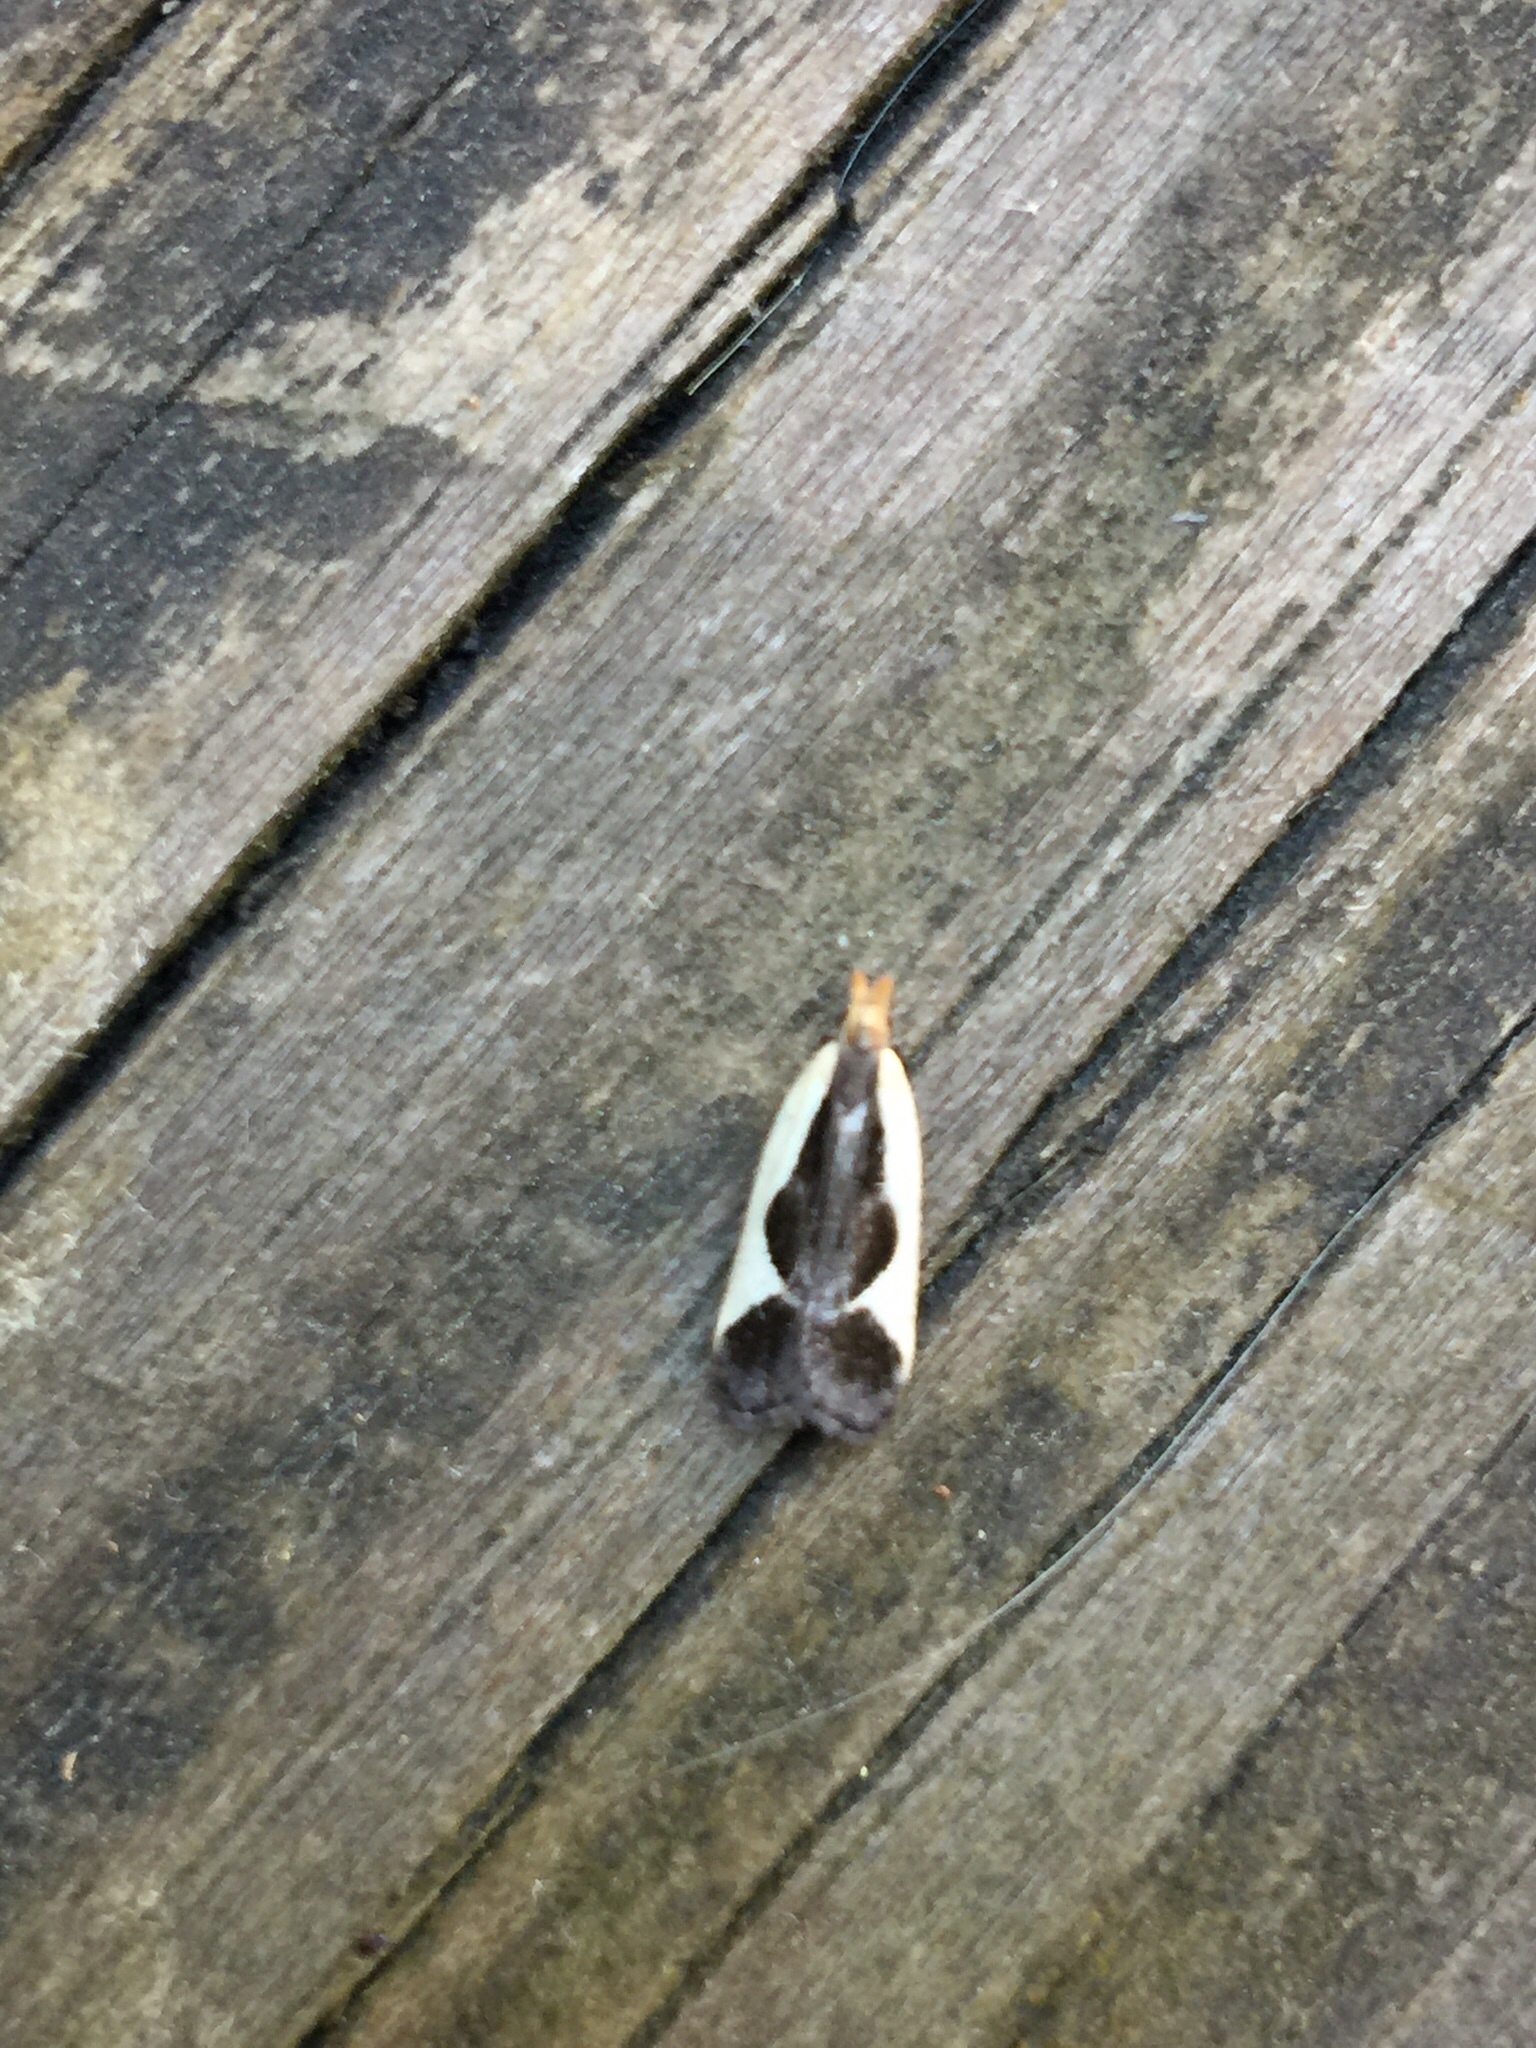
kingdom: Animalia
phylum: Arthropoda
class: Insecta
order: Lepidoptera
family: Gelechiidae
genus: Dichomeris
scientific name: Dichomeris flavocostella
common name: Cream-edged dichomeris moth
